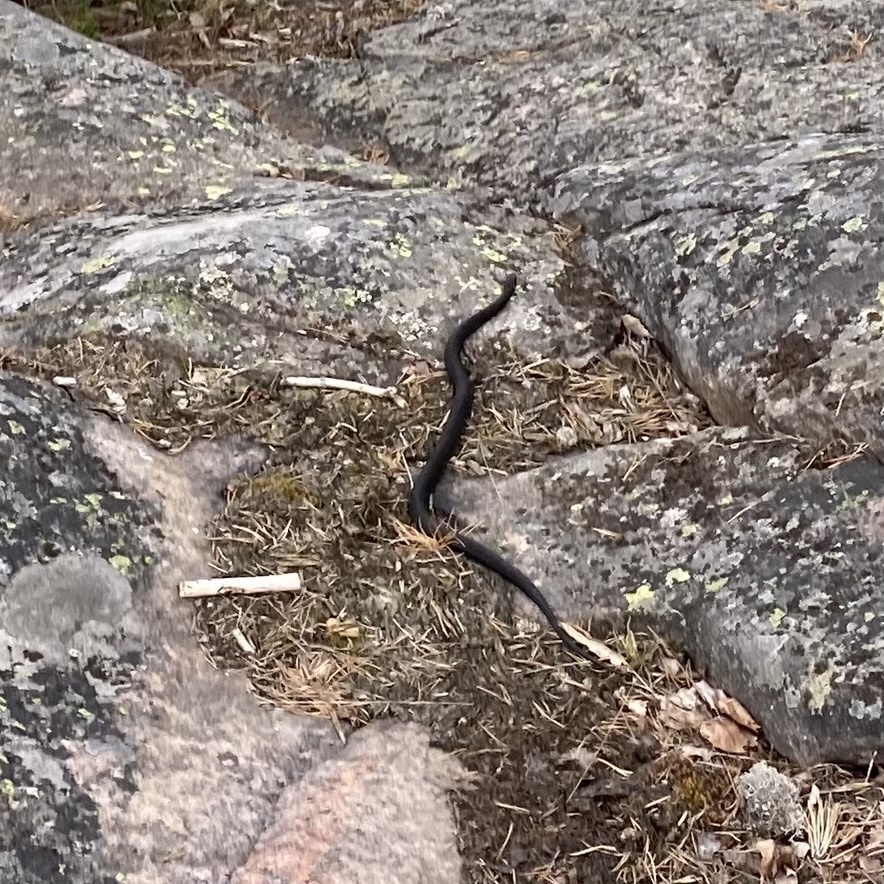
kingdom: Animalia
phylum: Chordata
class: Squamata
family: Viperidae
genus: Vipera
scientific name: Vipera berus
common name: Adder
